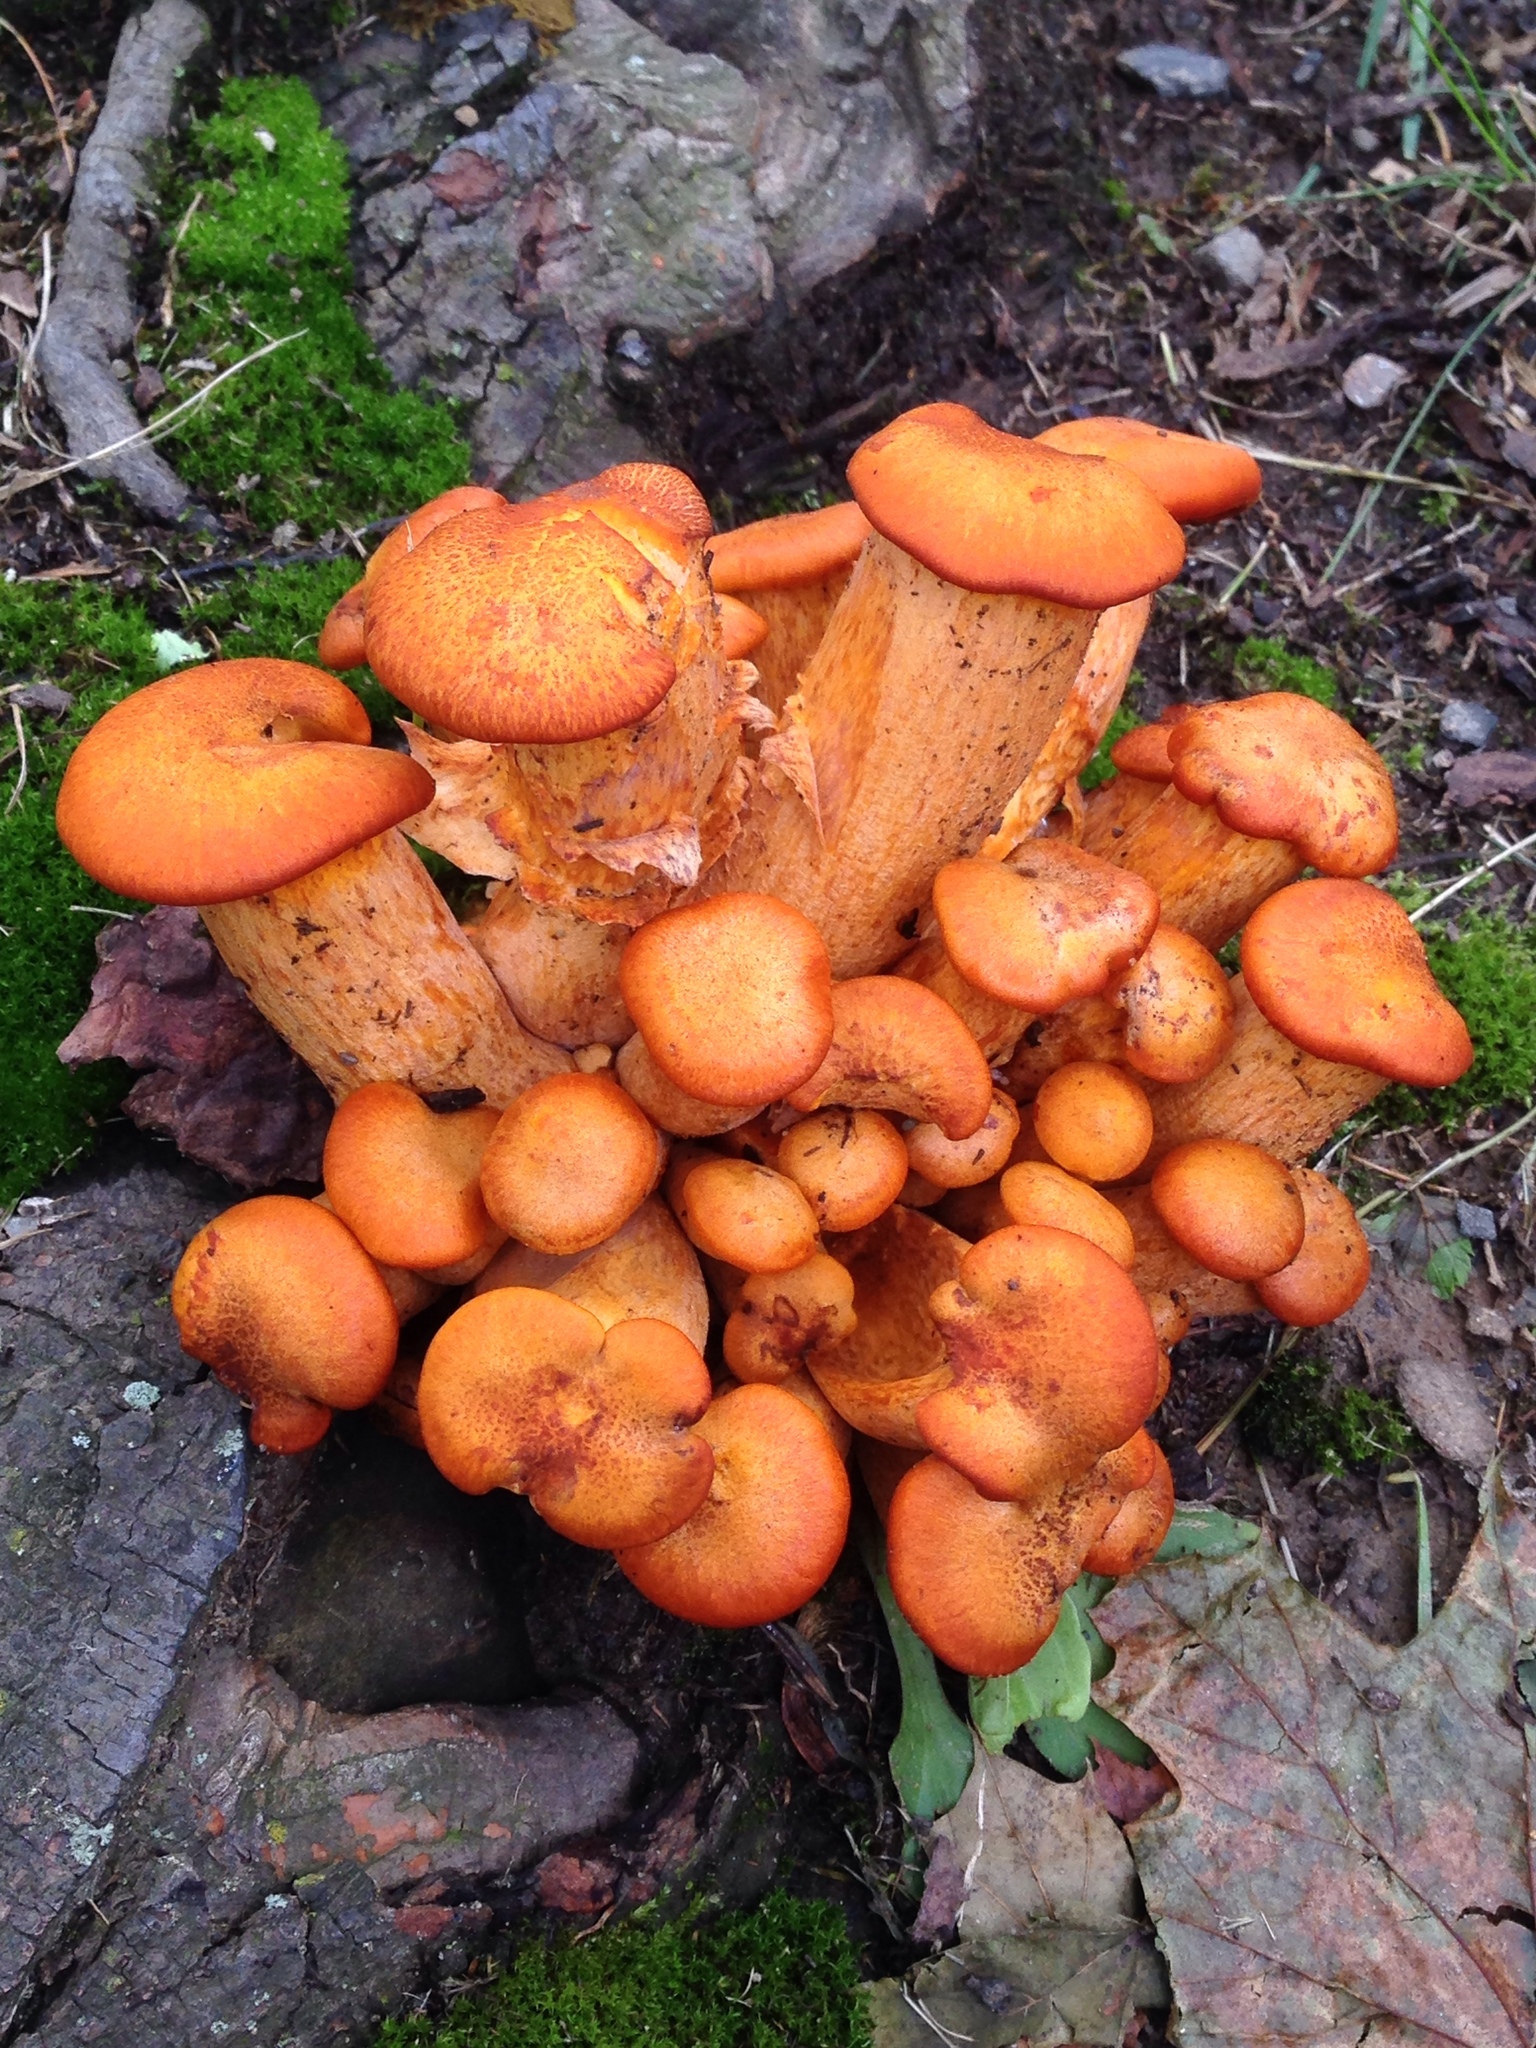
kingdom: Fungi
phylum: Basidiomycota
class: Agaricomycetes
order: Agaricales
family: Omphalotaceae
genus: Omphalotus
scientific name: Omphalotus illudens
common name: Jack o lantern
